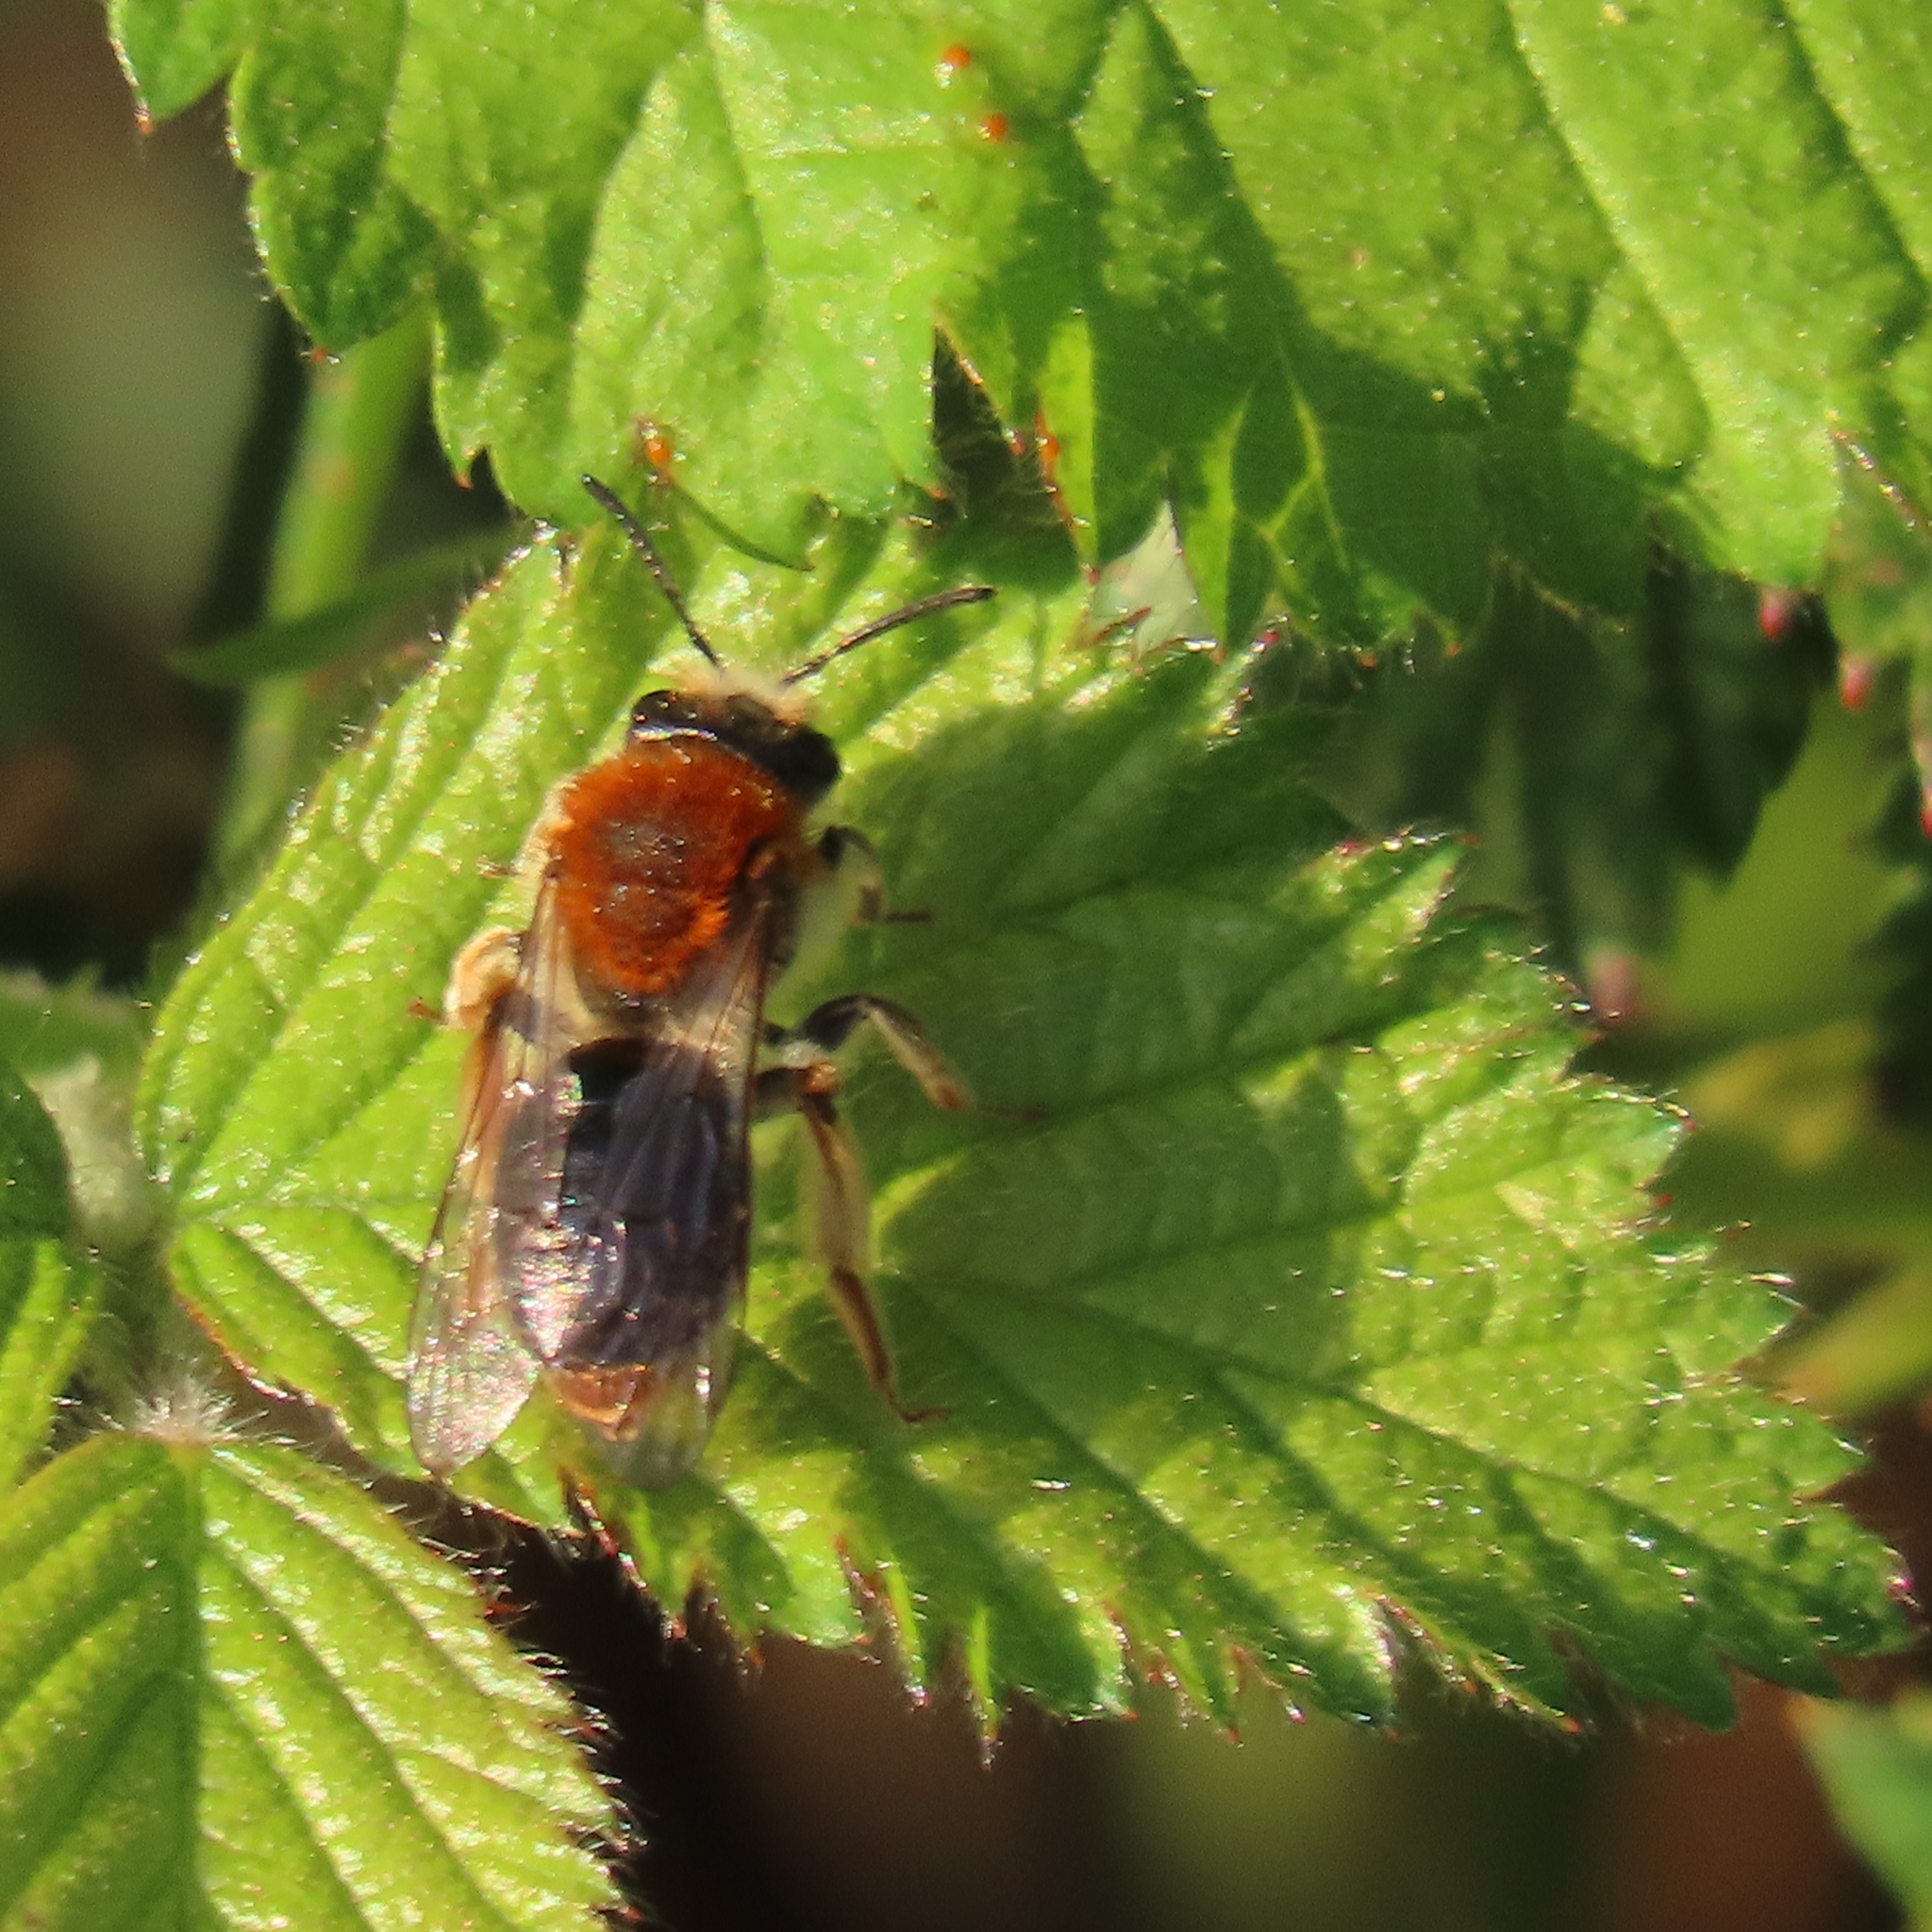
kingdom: Animalia
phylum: Arthropoda
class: Insecta
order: Hymenoptera
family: Andrenidae
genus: Andrena
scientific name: Andrena haemorrhoa
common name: Early mining bee
